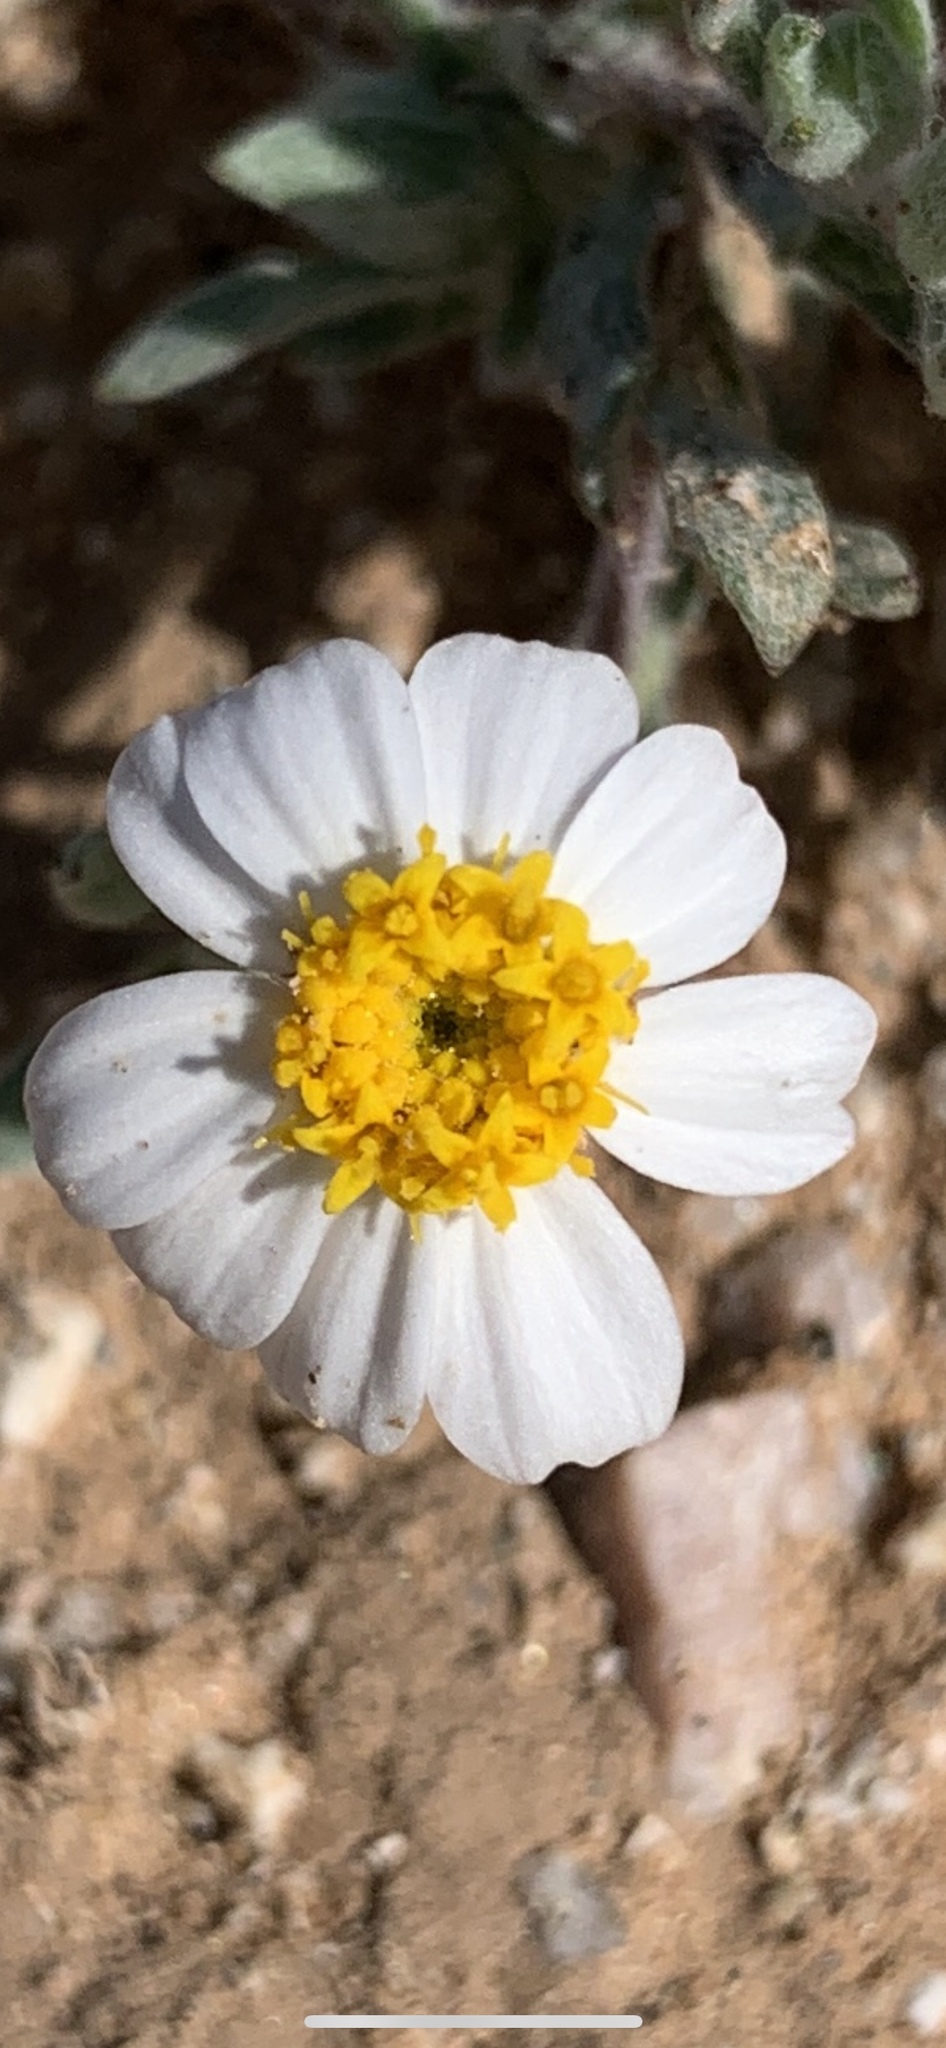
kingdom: Plantae
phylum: Tracheophyta
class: Magnoliopsida
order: Asterales
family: Asteraceae
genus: Eriophyllum
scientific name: Eriophyllum lanosum
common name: White easter-bonnets
